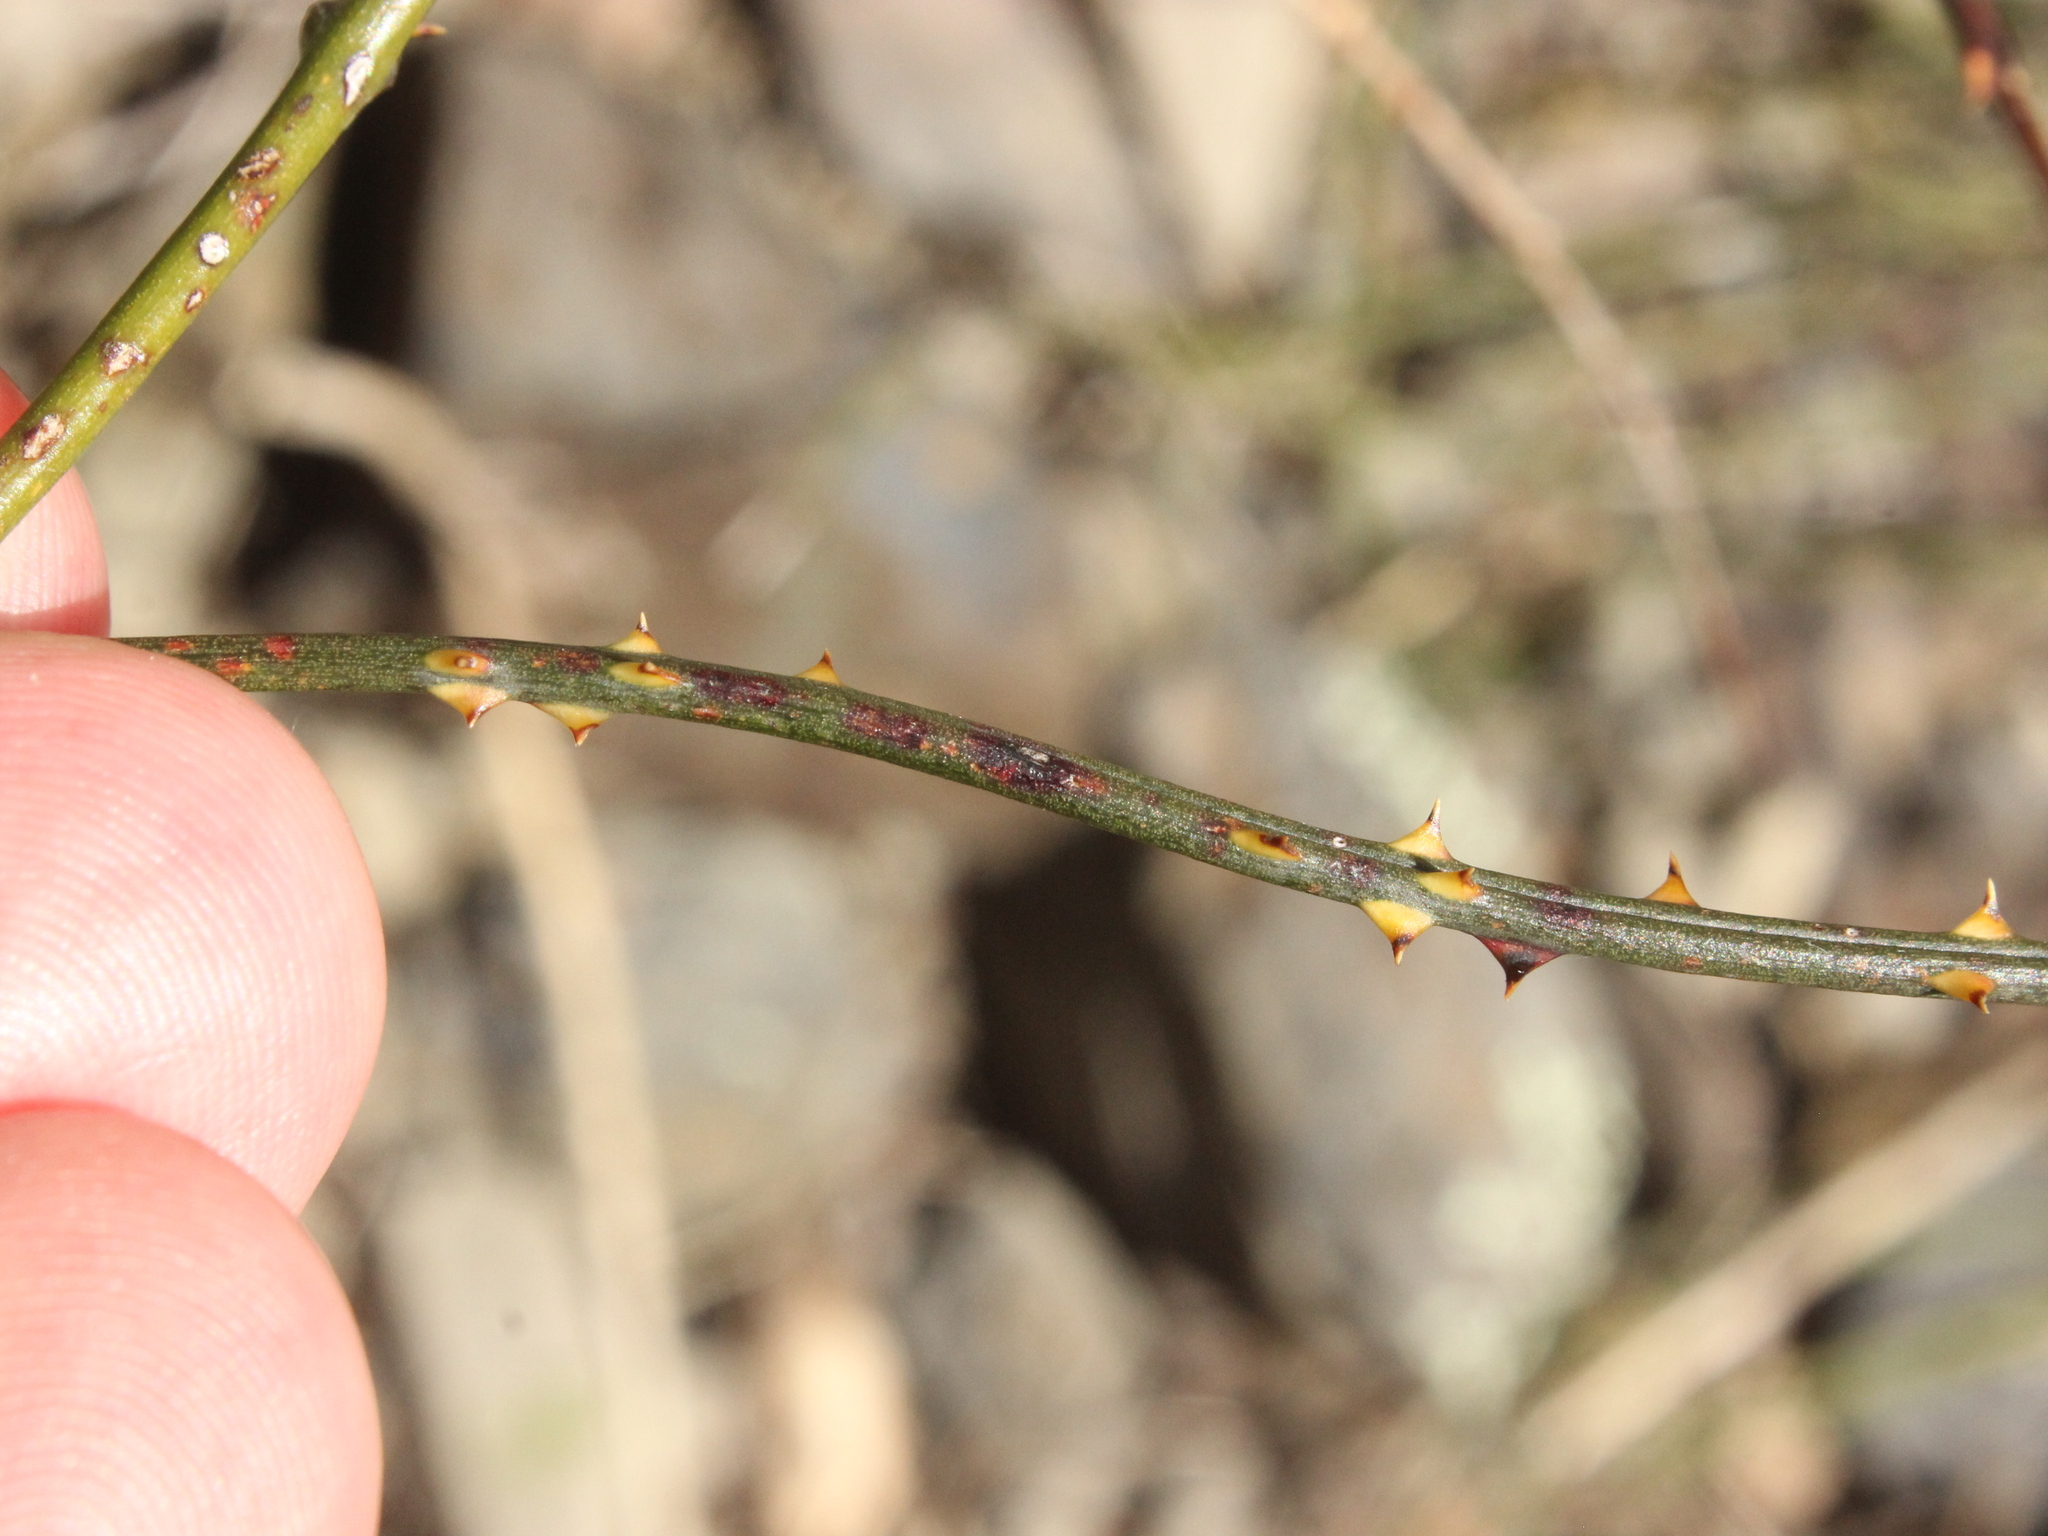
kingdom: Plantae
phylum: Tracheophyta
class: Magnoliopsida
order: Rosales
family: Rosaceae
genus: Rubus
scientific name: Rubus squarrosus
